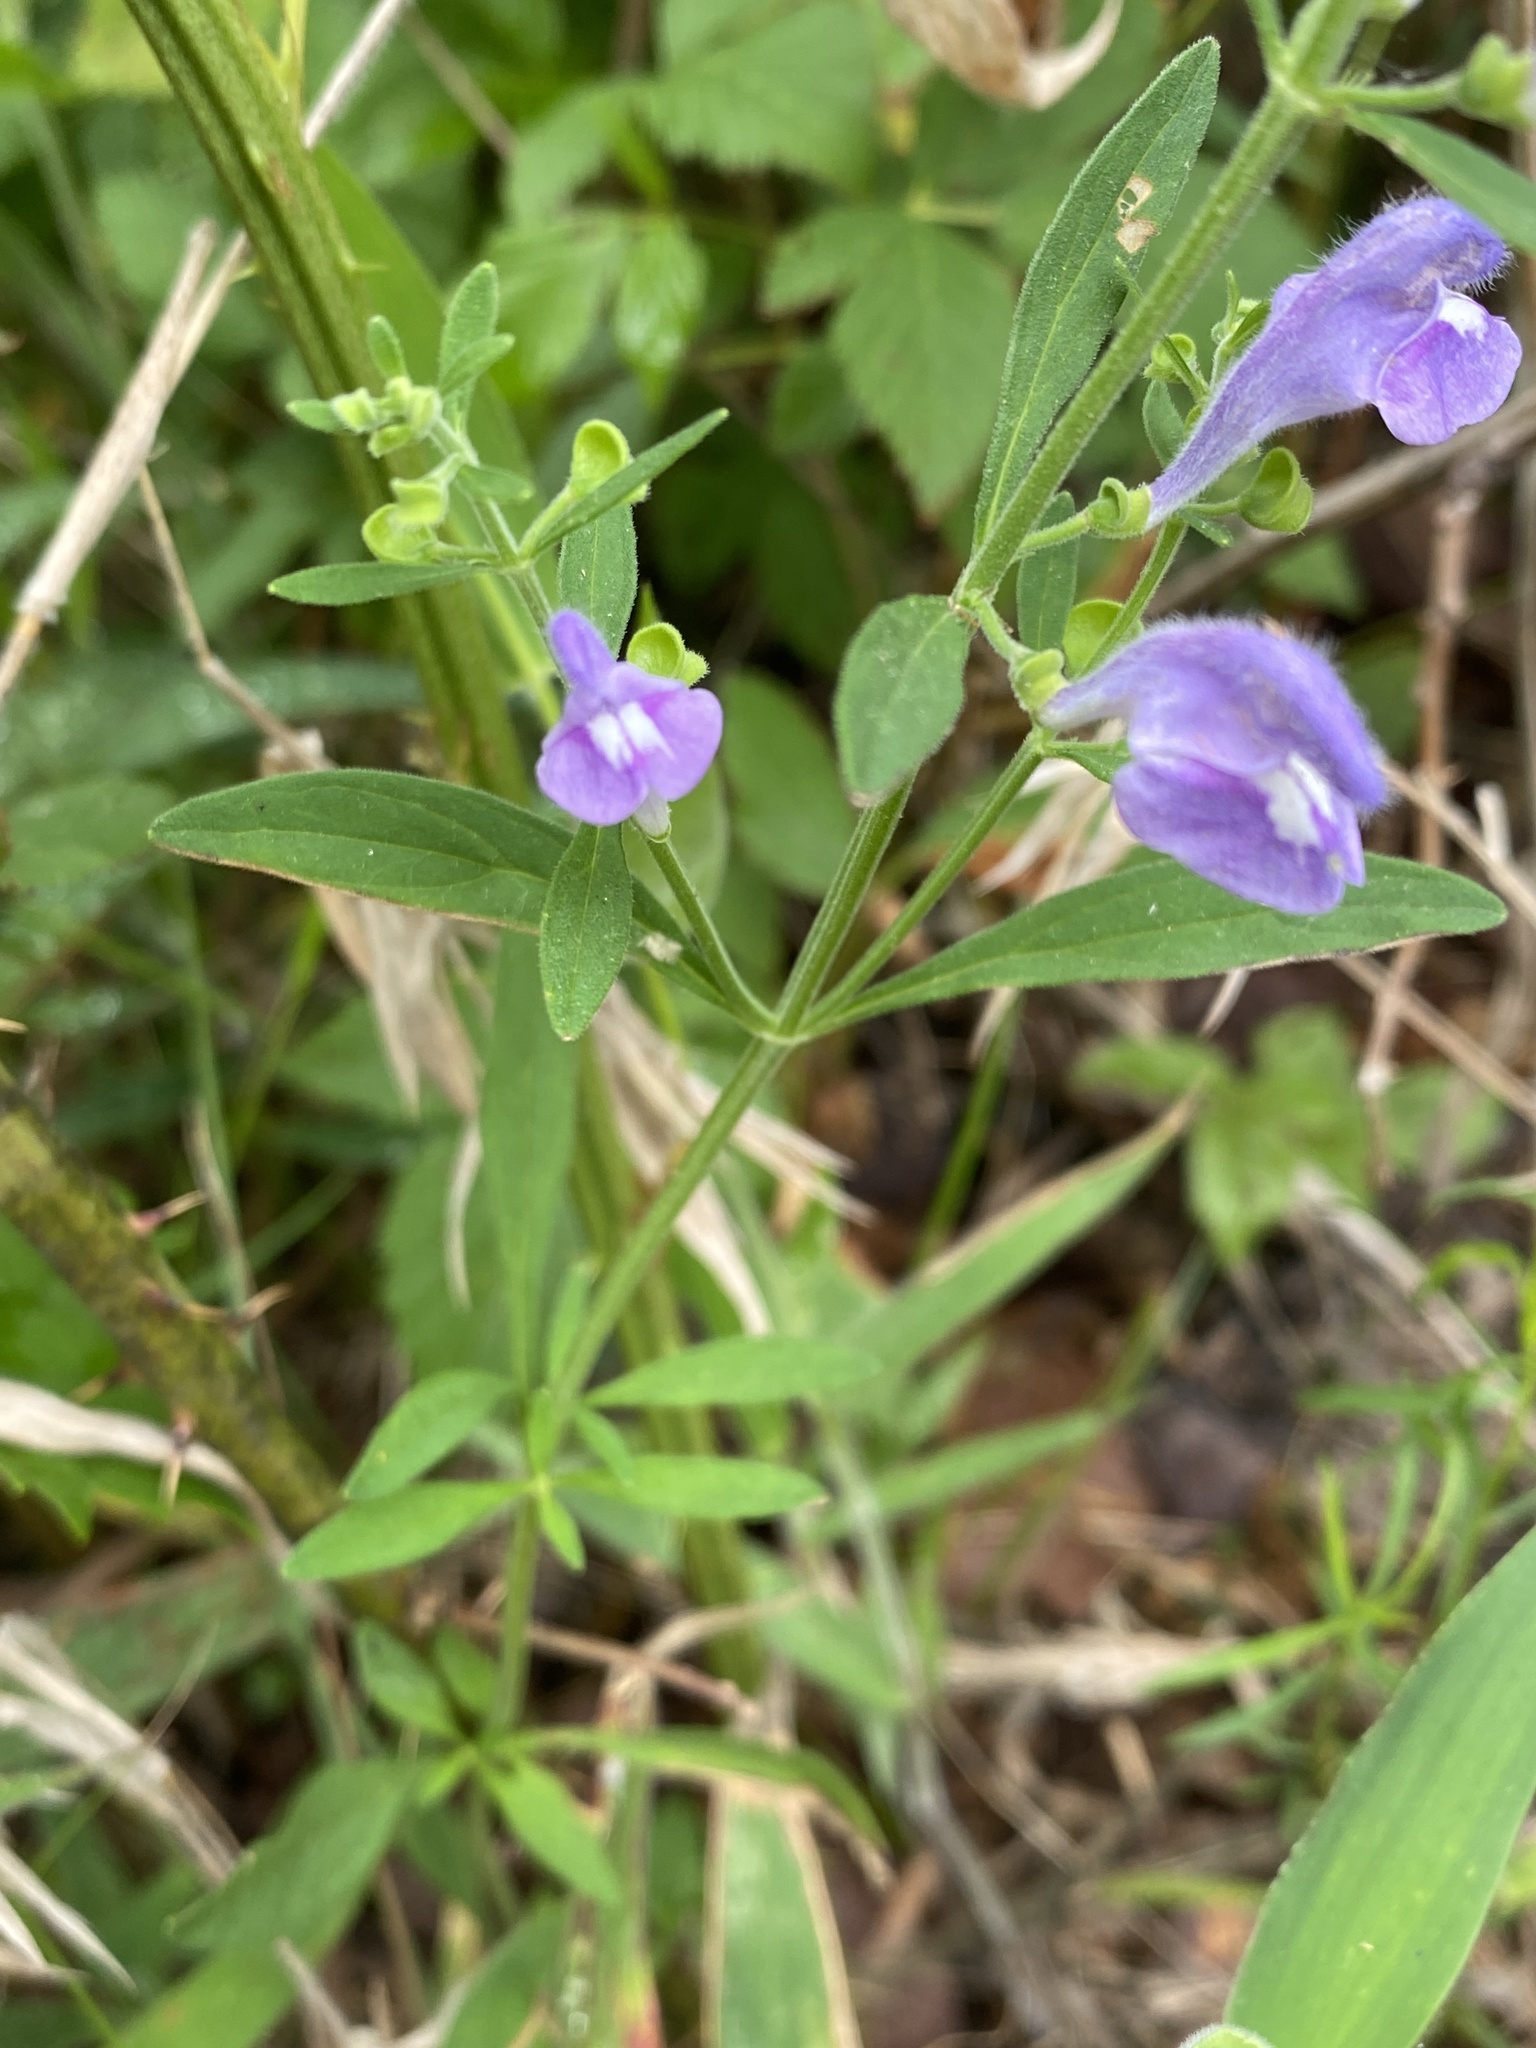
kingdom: Plantae
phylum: Tracheophyta
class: Magnoliopsida
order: Lamiales
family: Lamiaceae
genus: Scutellaria
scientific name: Scutellaria integrifolia
